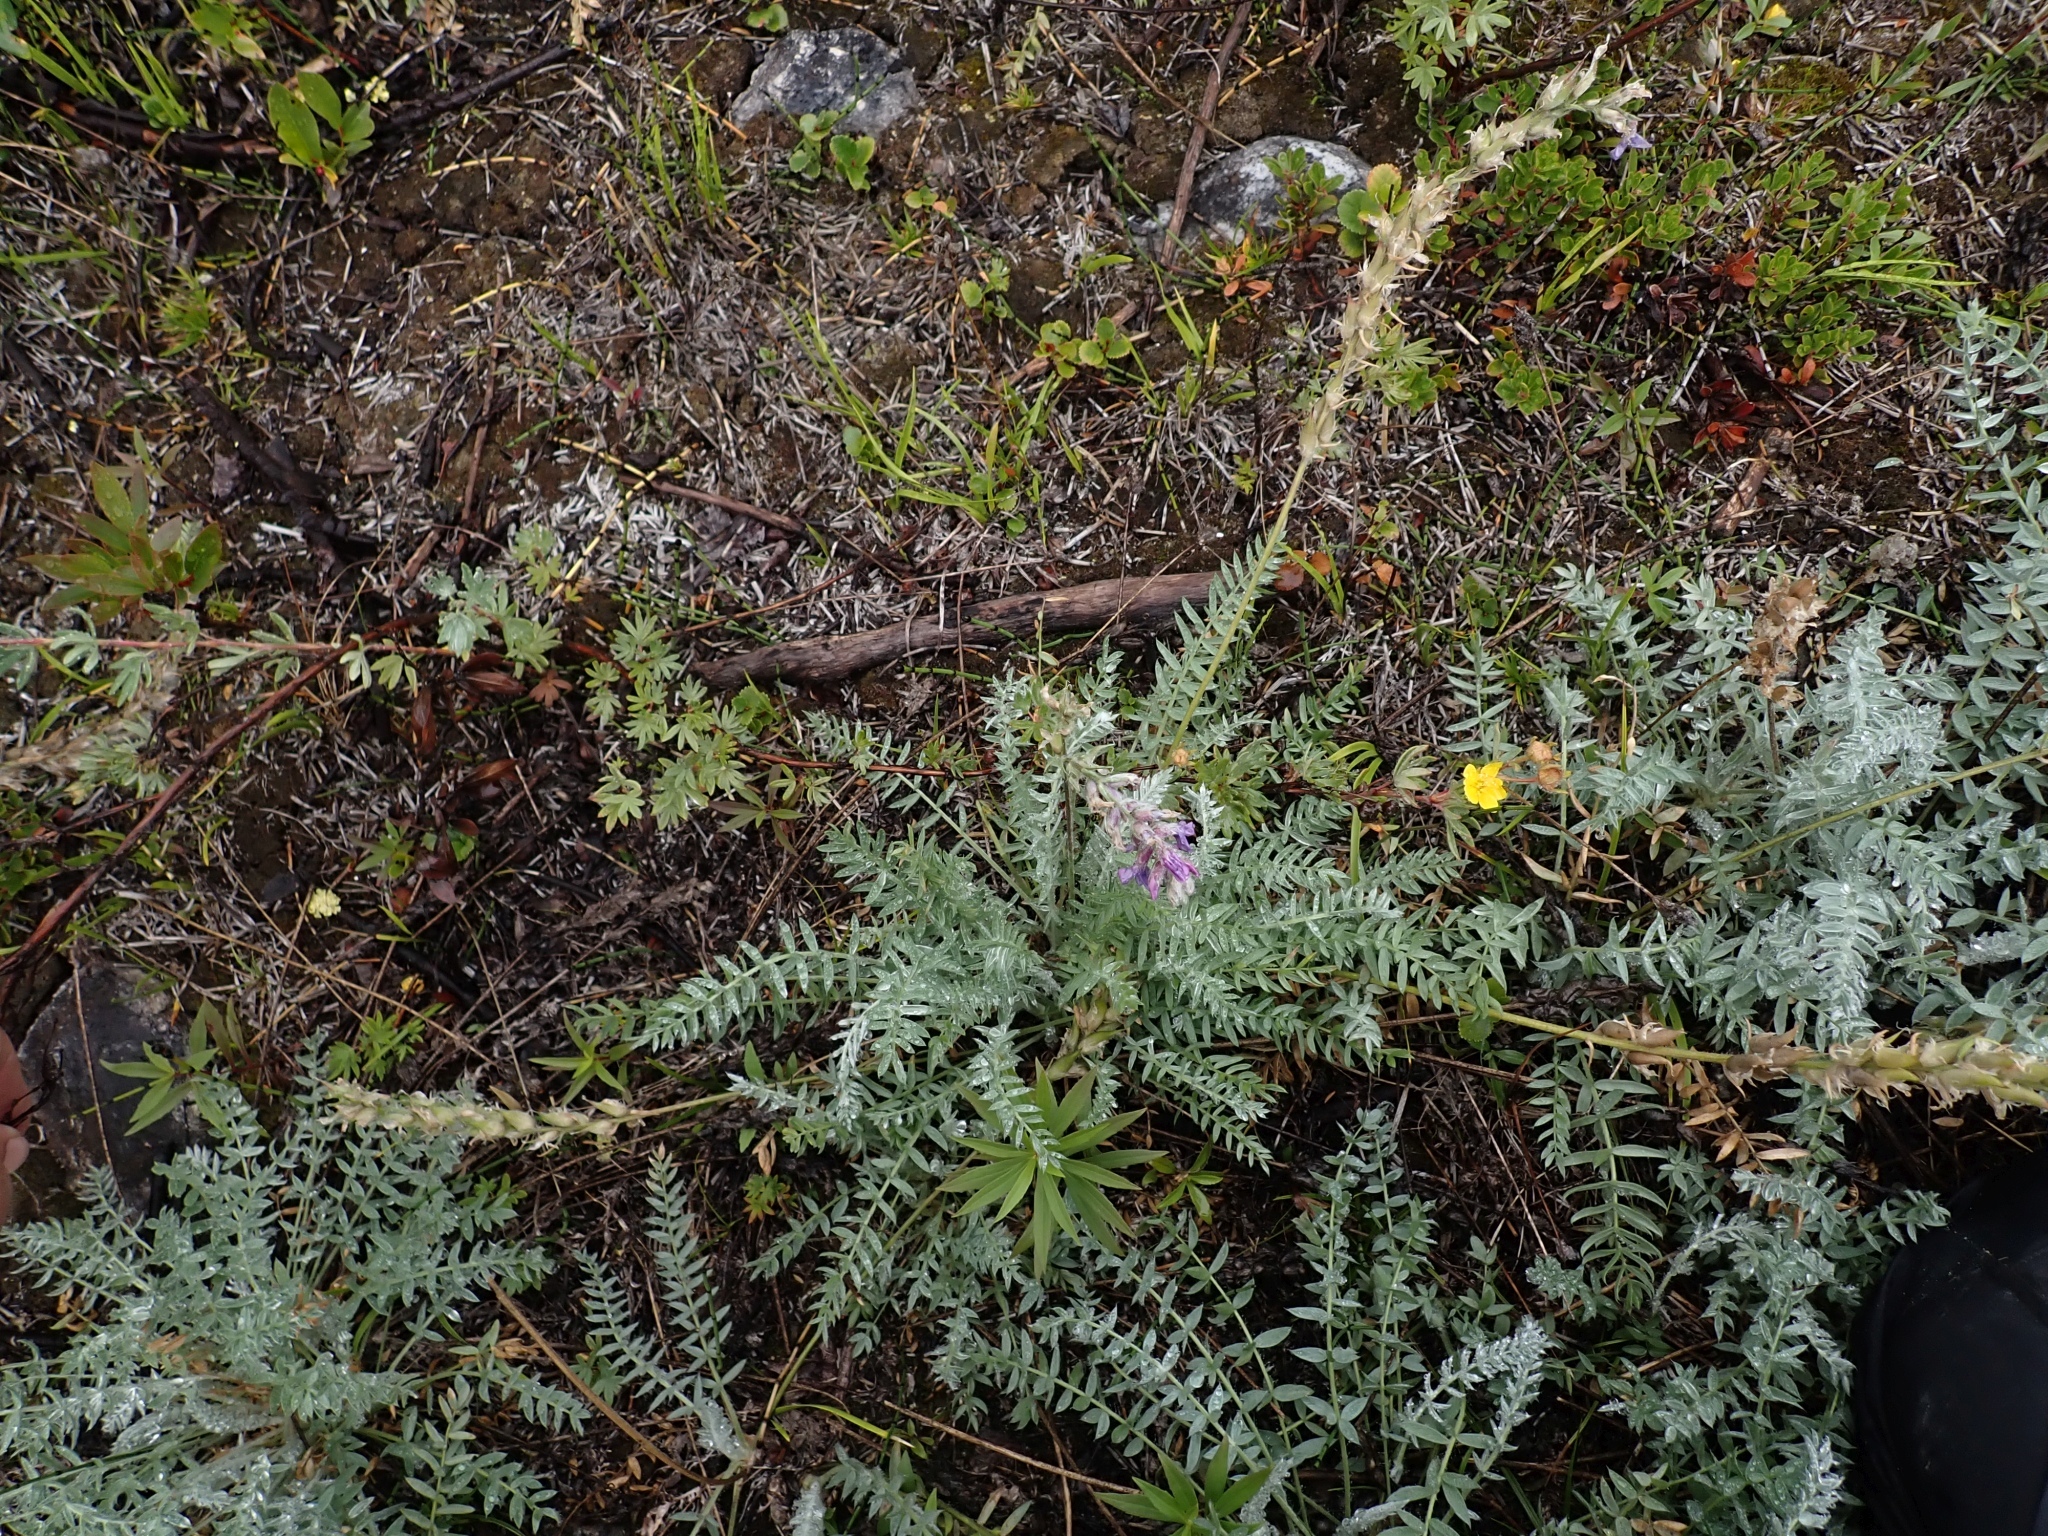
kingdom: Plantae
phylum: Tracheophyta
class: Magnoliopsida
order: Fabales
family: Fabaceae
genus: Oxytropis
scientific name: Oxytropis splendens
